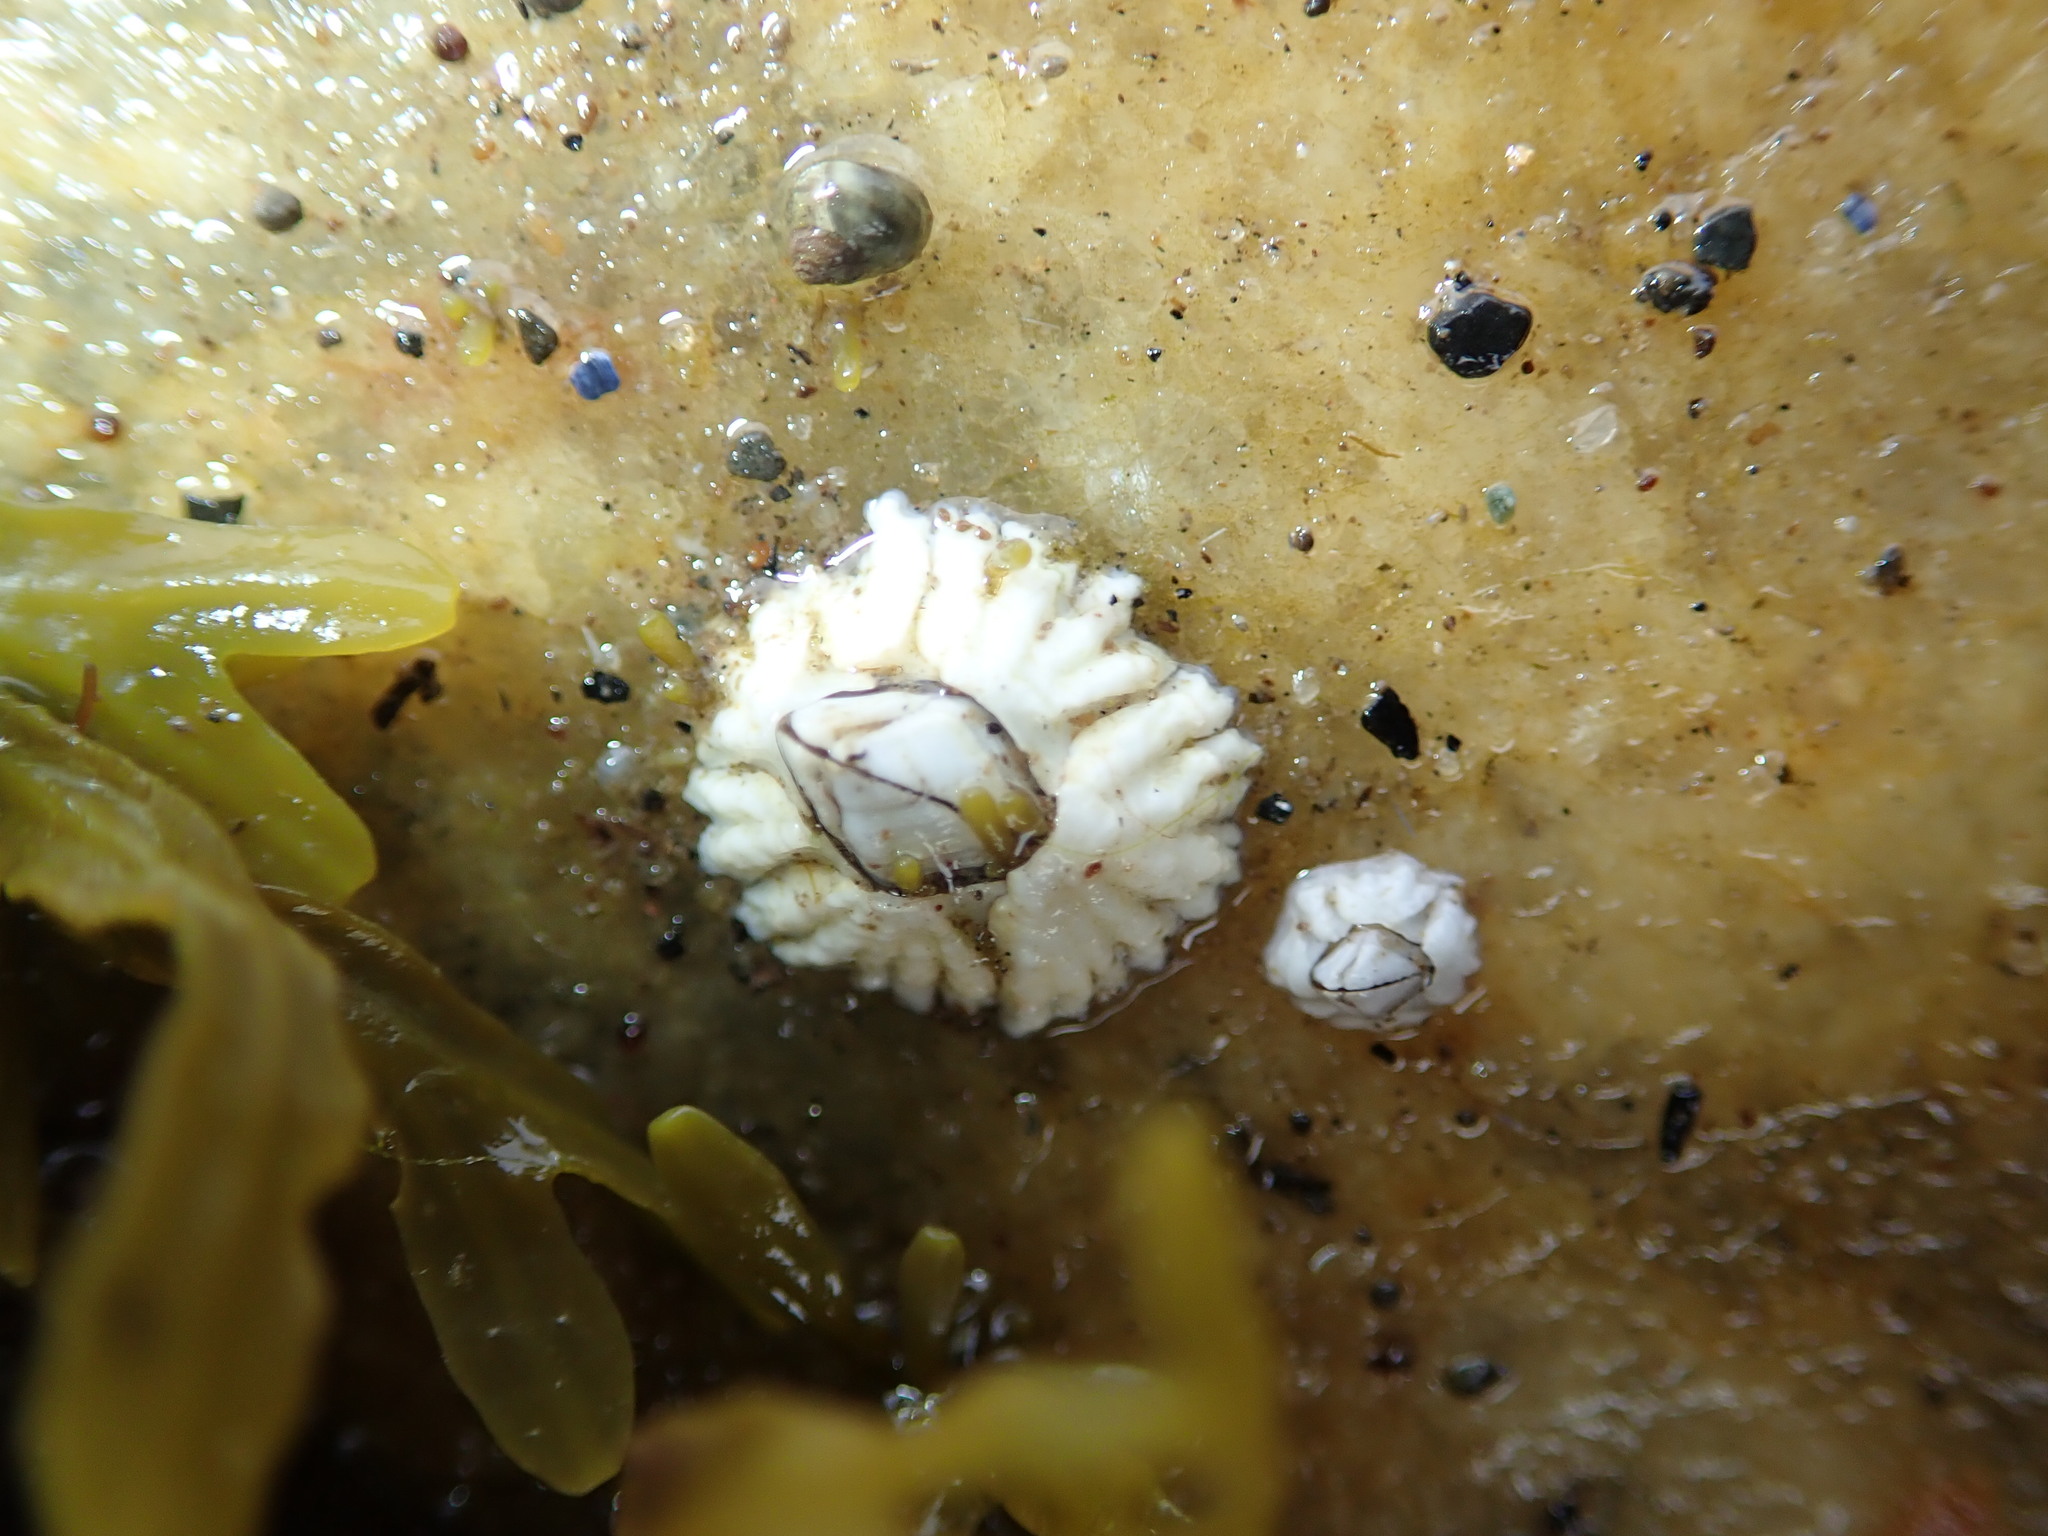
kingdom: Animalia
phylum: Arthropoda
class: Maxillopoda
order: Sessilia
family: Archaeobalanidae
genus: Semibalanus
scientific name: Semibalanus balanoides
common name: Acorn barnacle
